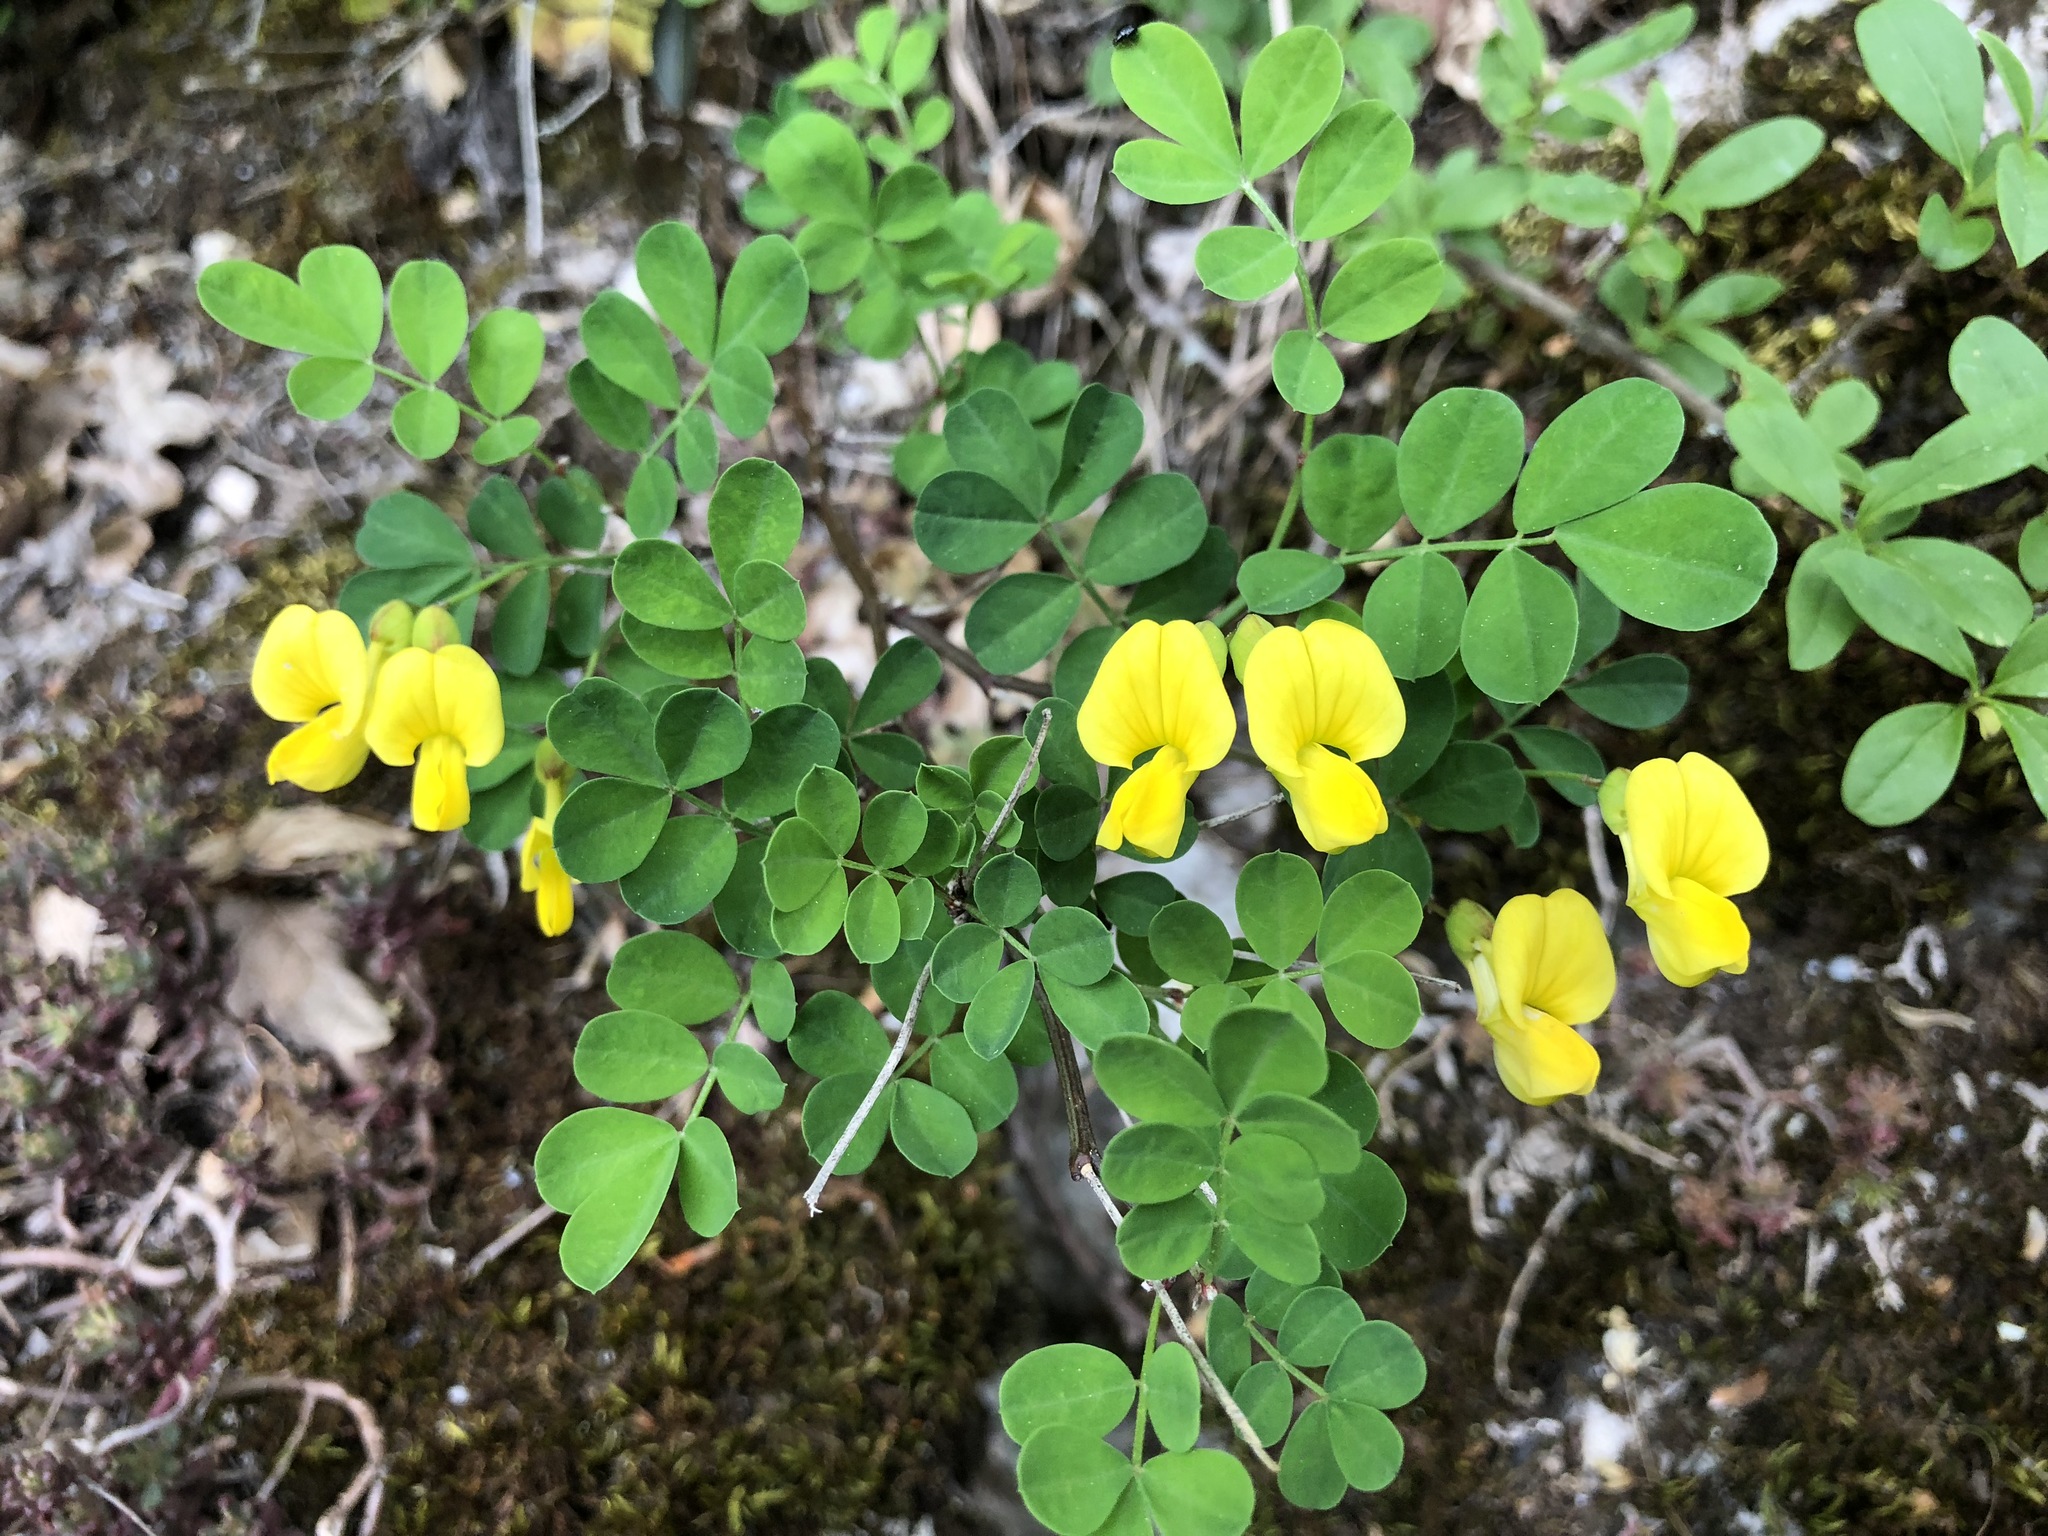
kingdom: Plantae
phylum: Tracheophyta
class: Magnoliopsida
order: Fabales
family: Fabaceae
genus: Hippocrepis
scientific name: Hippocrepis emerus
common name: Scorpion senna
